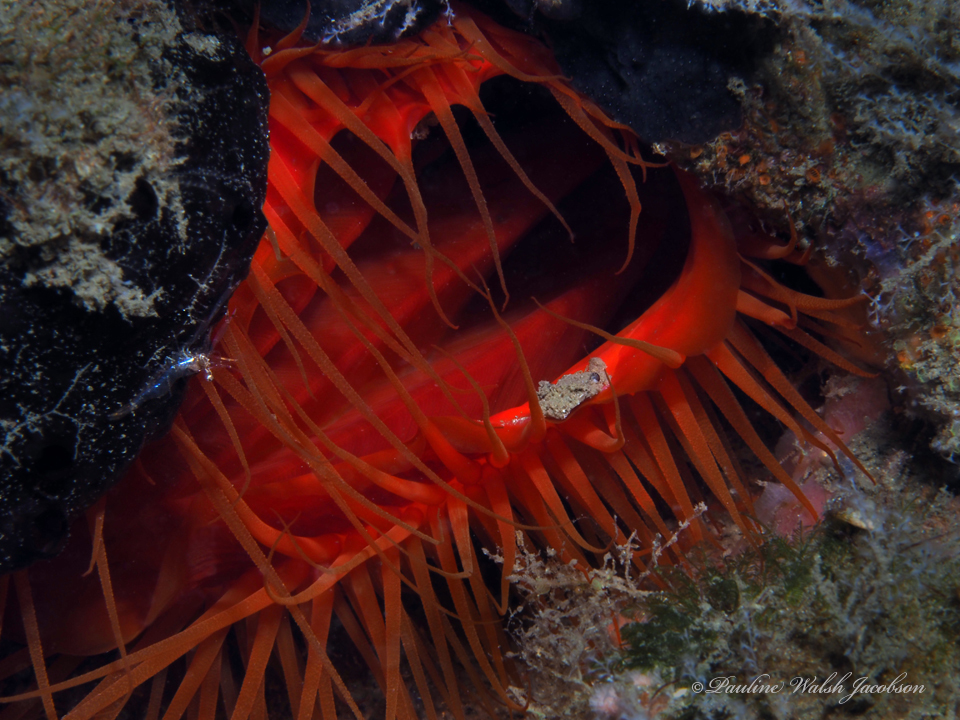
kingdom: Animalia
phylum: Mollusca
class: Bivalvia
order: Limida
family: Limidae
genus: Ctenoides
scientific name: Ctenoides scaber
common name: Rough fileclam
